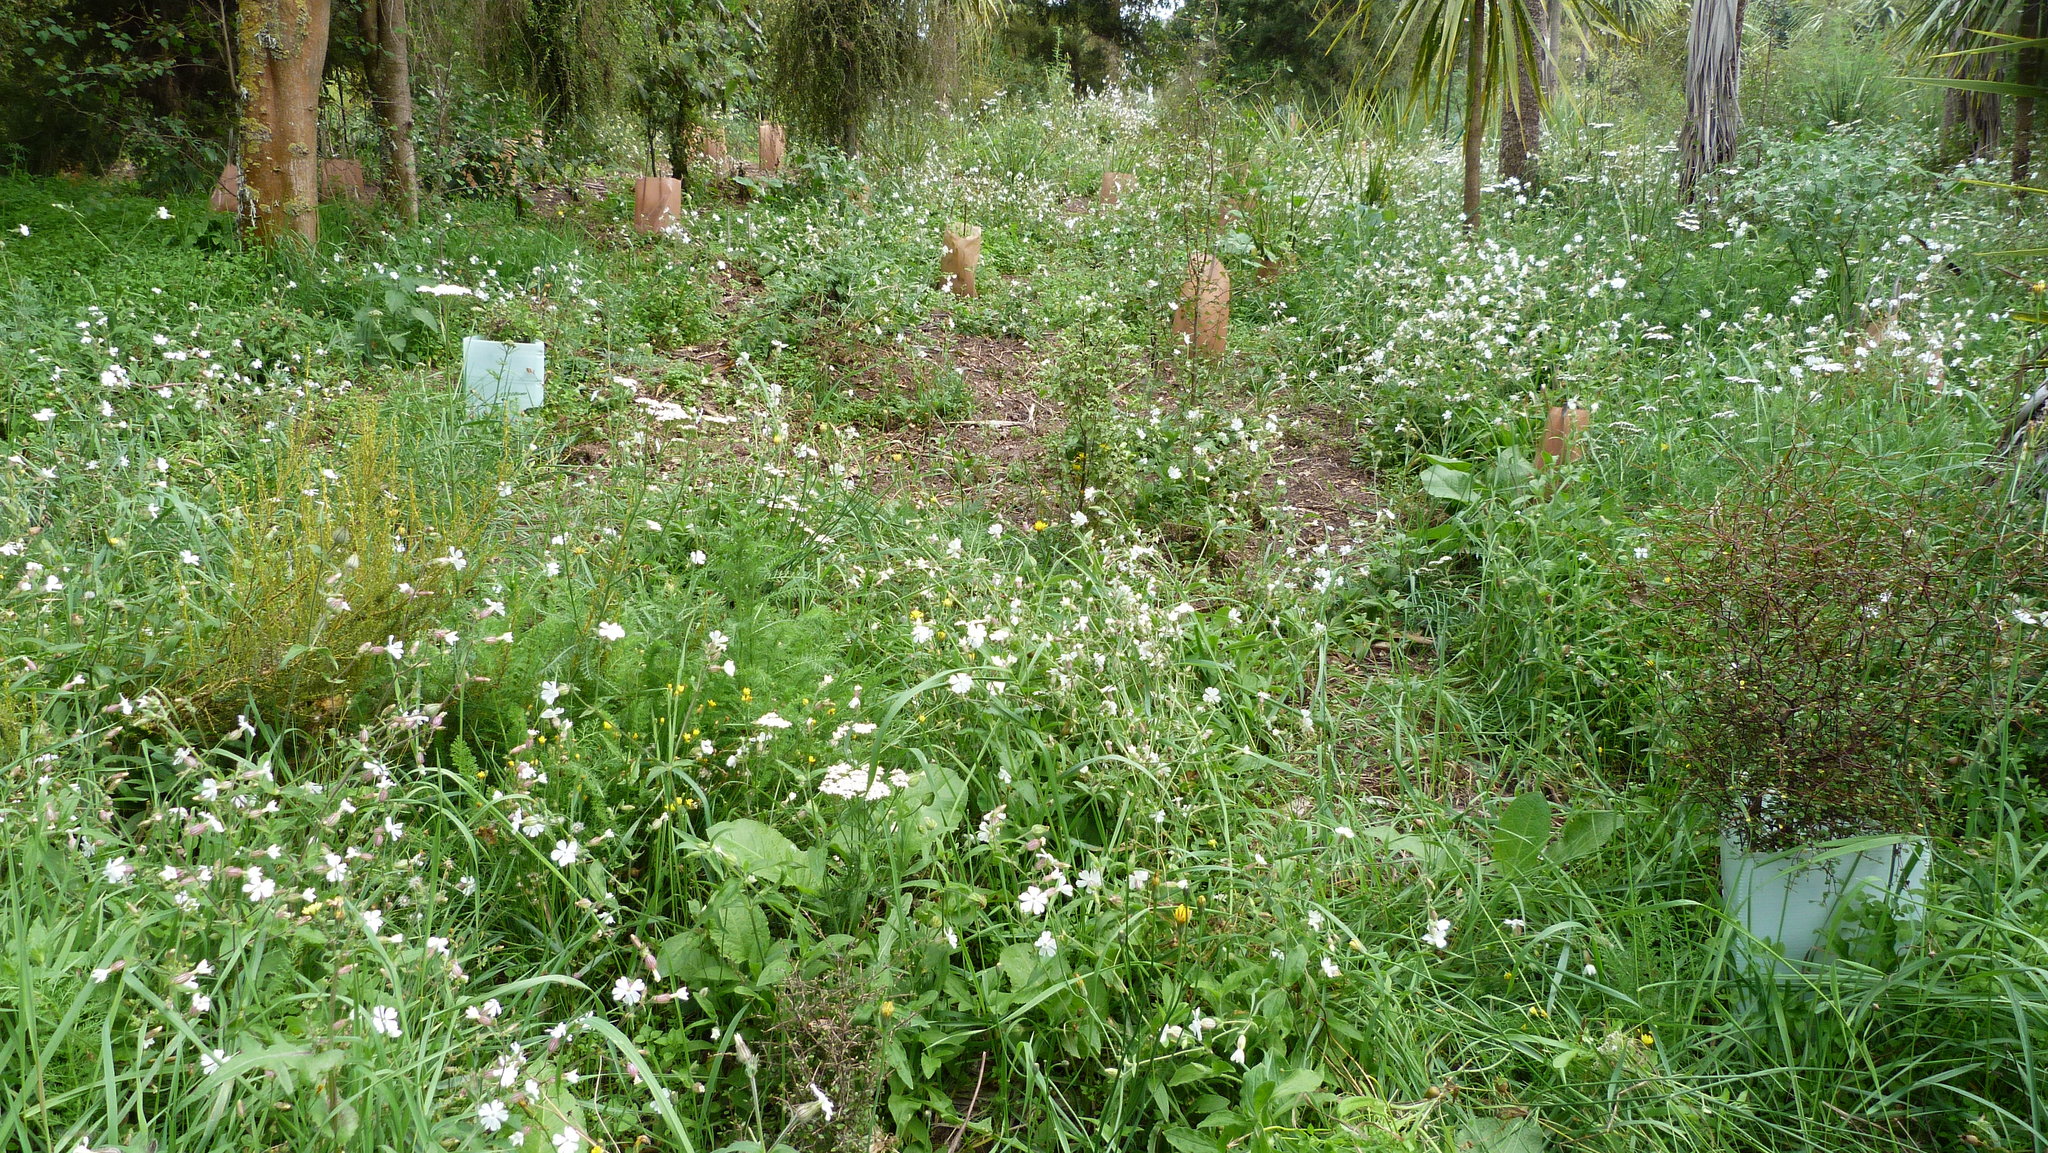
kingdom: Plantae
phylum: Tracheophyta
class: Magnoliopsida
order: Caryophyllales
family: Caryophyllaceae
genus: Silene
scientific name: Silene latifolia
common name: White campion
